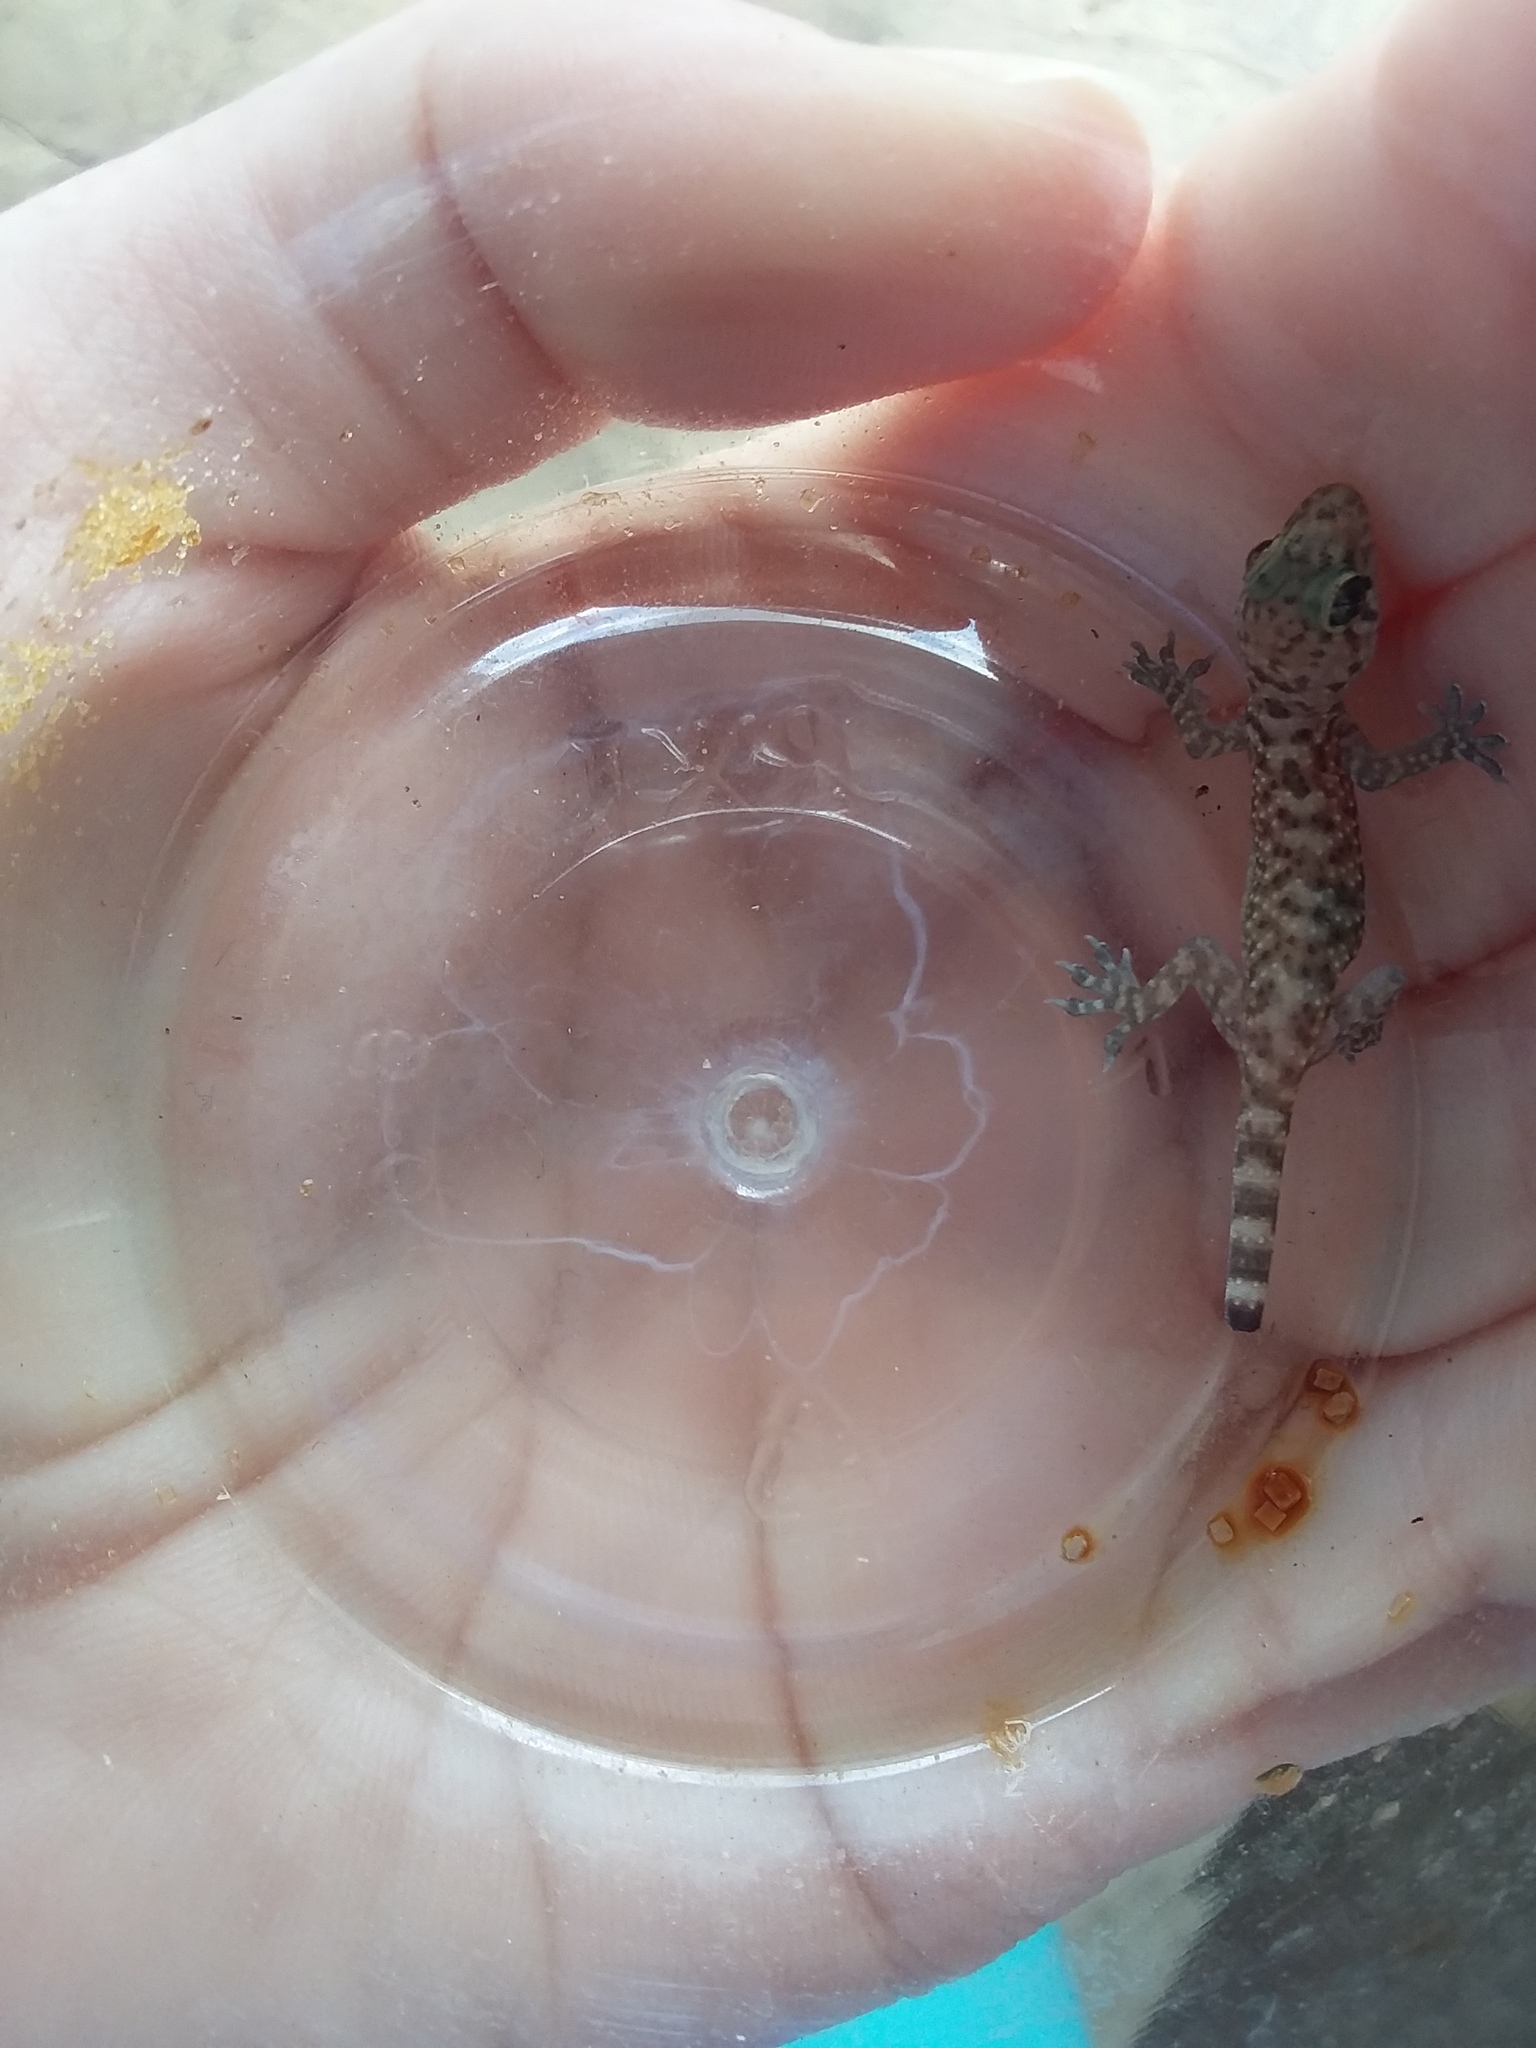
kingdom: Animalia
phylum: Chordata
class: Squamata
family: Gekkonidae
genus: Hemidactylus
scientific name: Hemidactylus turcicus
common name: Turkish gecko
